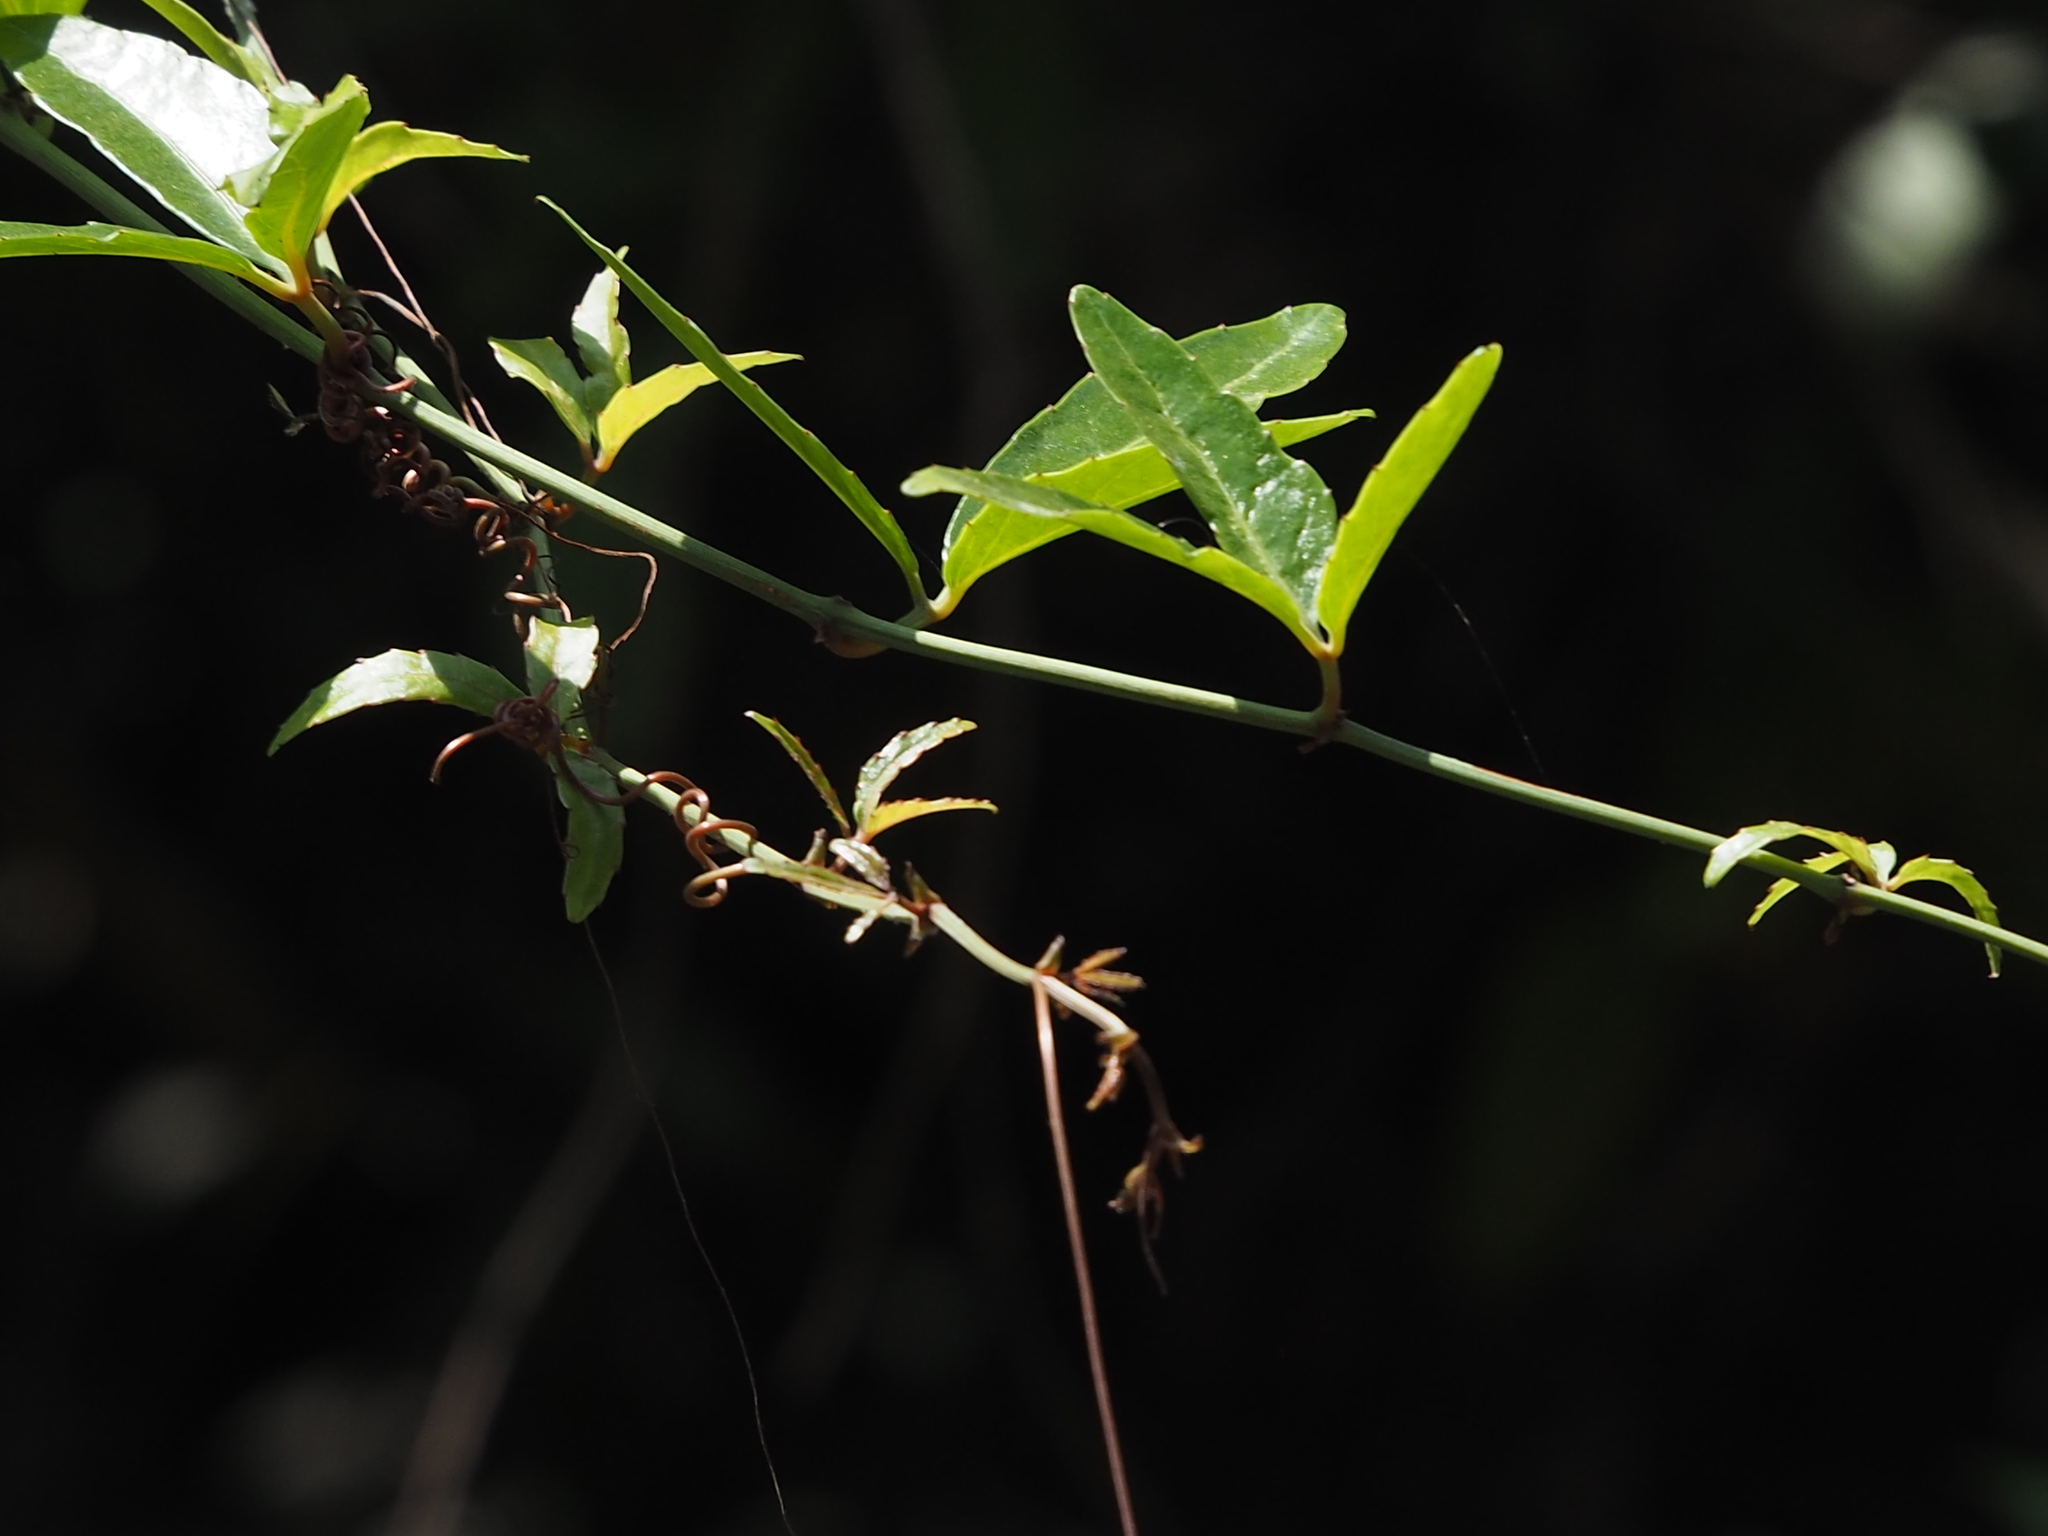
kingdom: Plantae
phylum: Tracheophyta
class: Magnoliopsida
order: Vitales
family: Vitaceae
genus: Tetrastigma
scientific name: Tetrastigma formosanum
